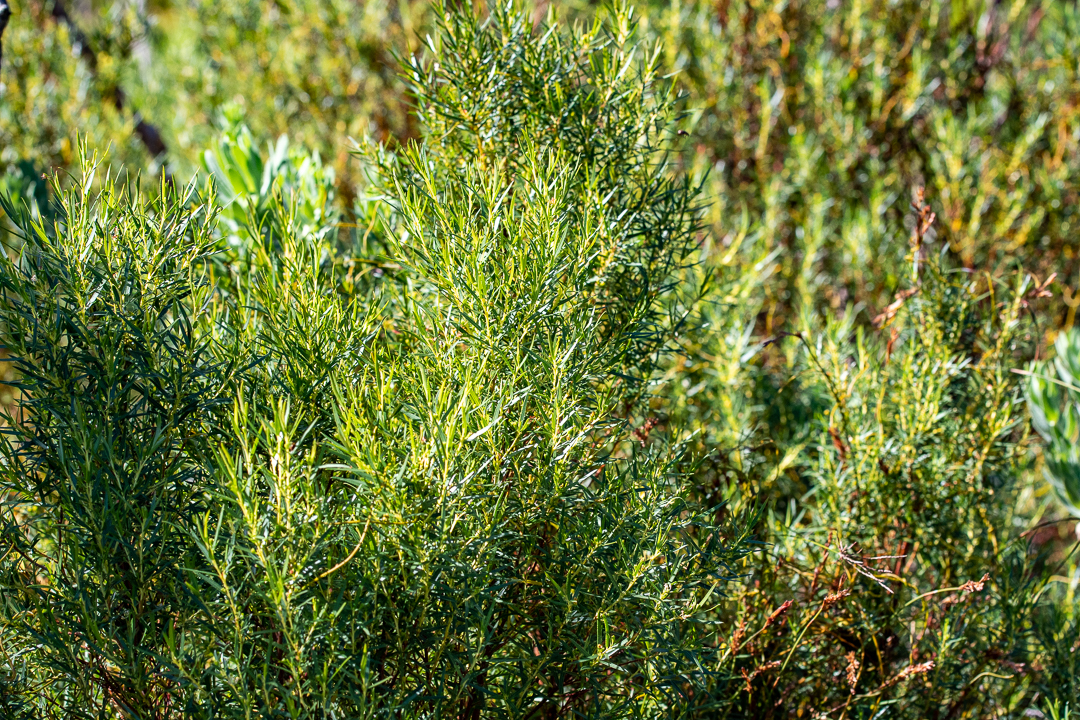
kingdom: Plantae
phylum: Tracheophyta
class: Magnoliopsida
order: Bruniales
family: Bruniaceae
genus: Brunia
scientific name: Brunia africana
